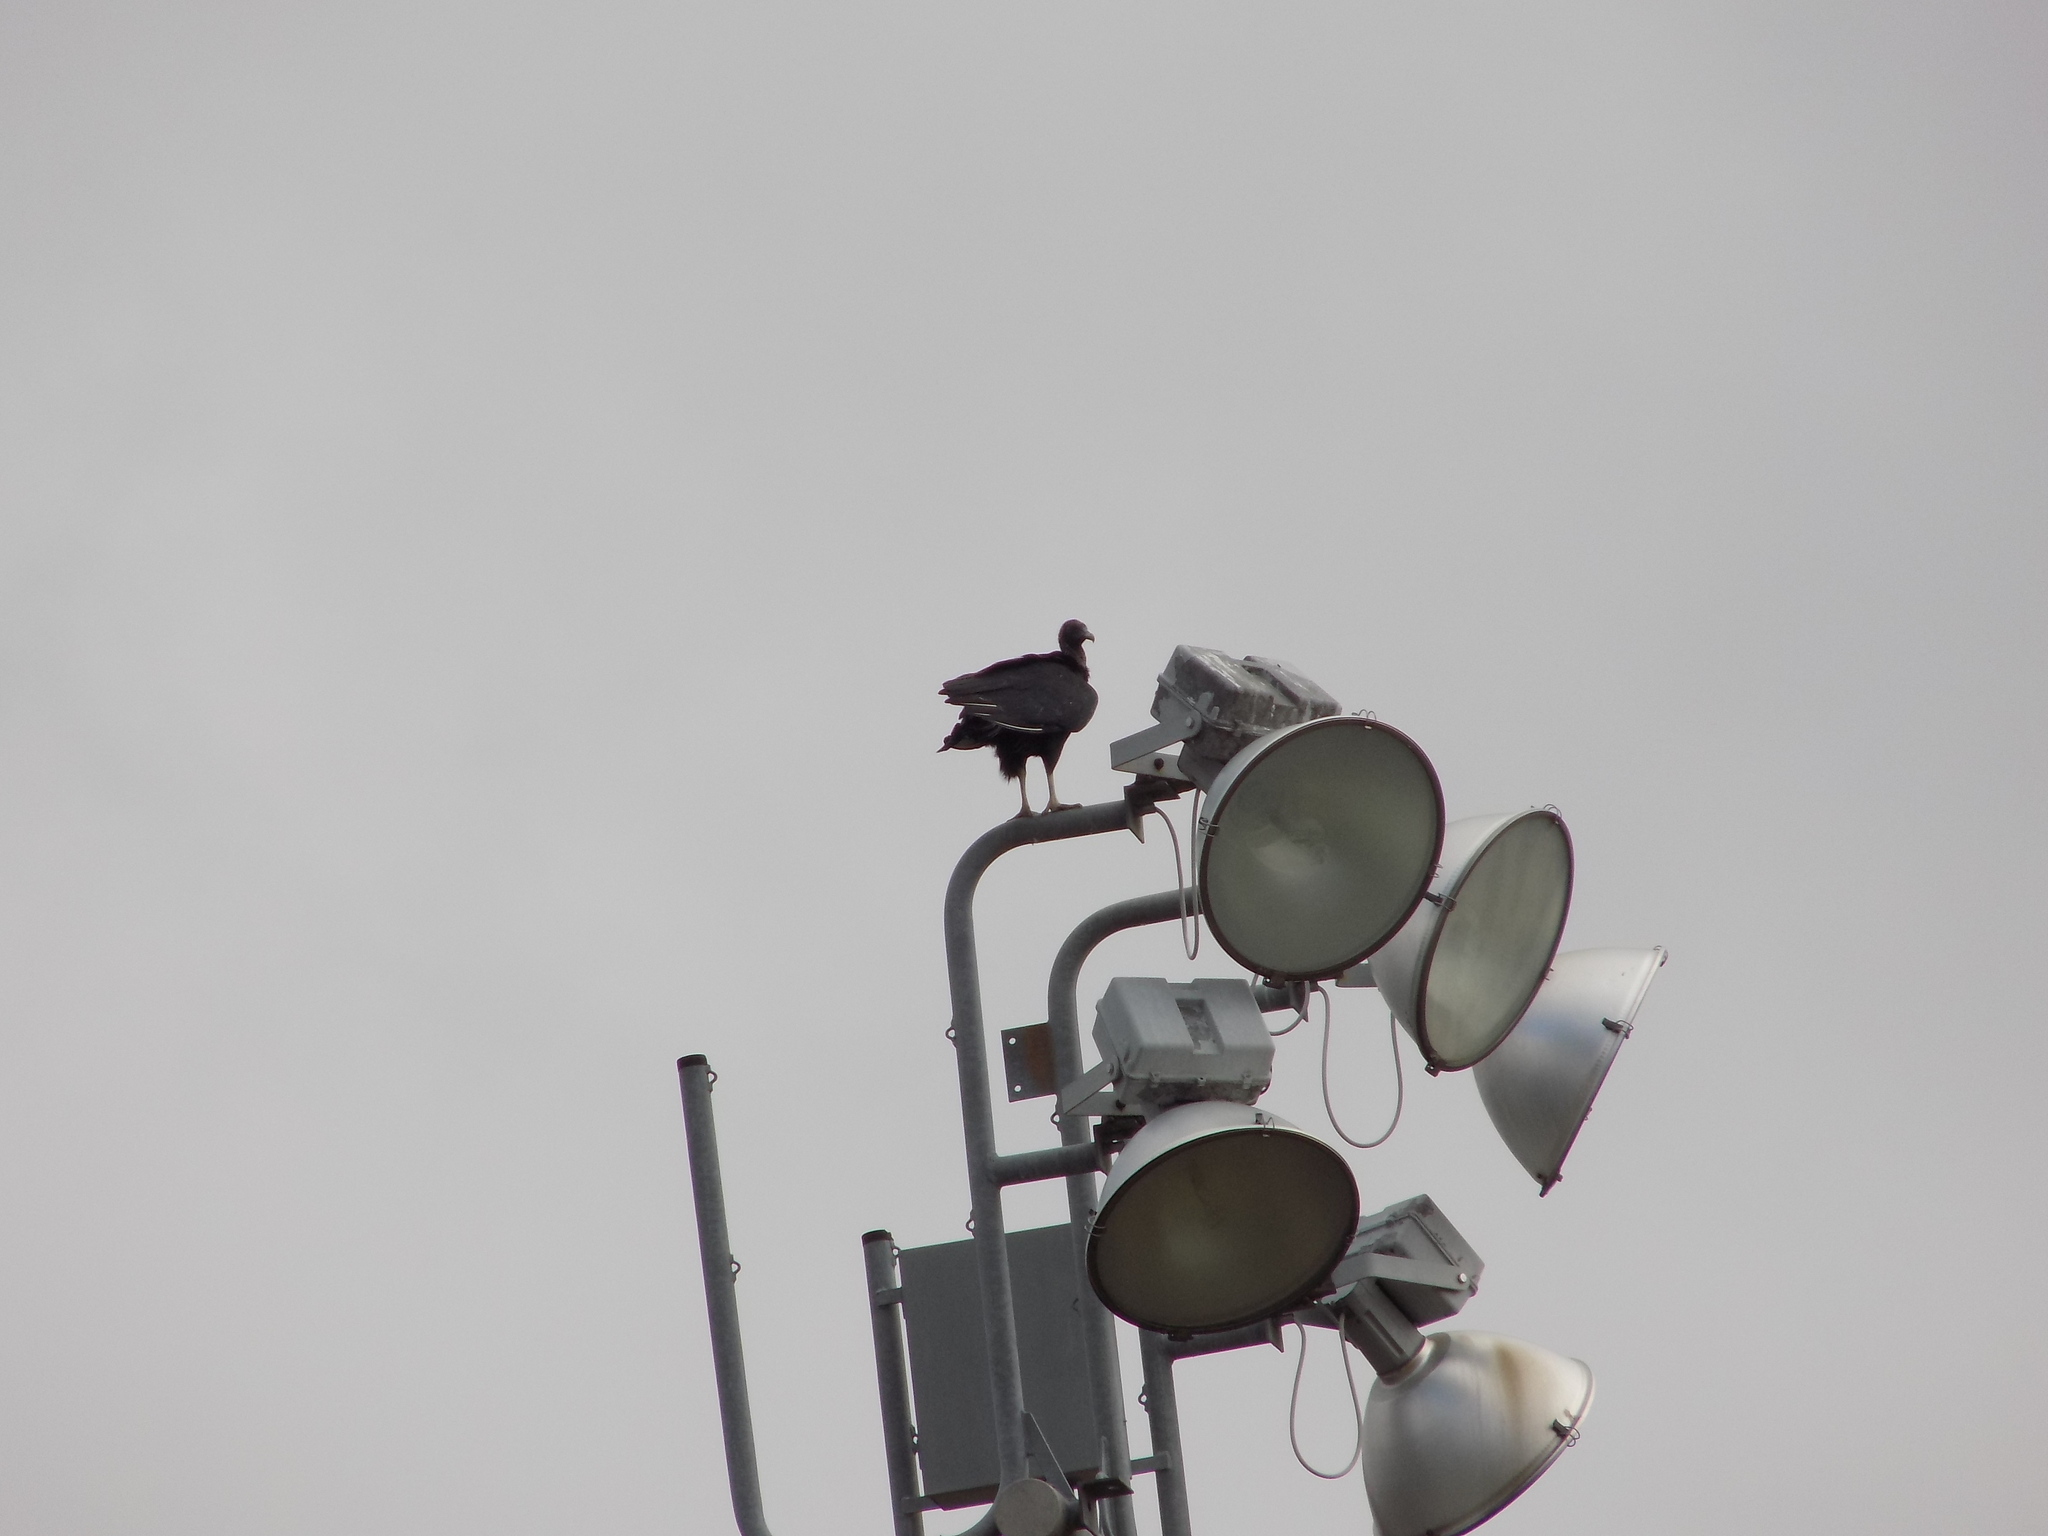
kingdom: Animalia
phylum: Chordata
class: Aves
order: Accipitriformes
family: Cathartidae
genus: Coragyps
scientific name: Coragyps atratus
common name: Black vulture
